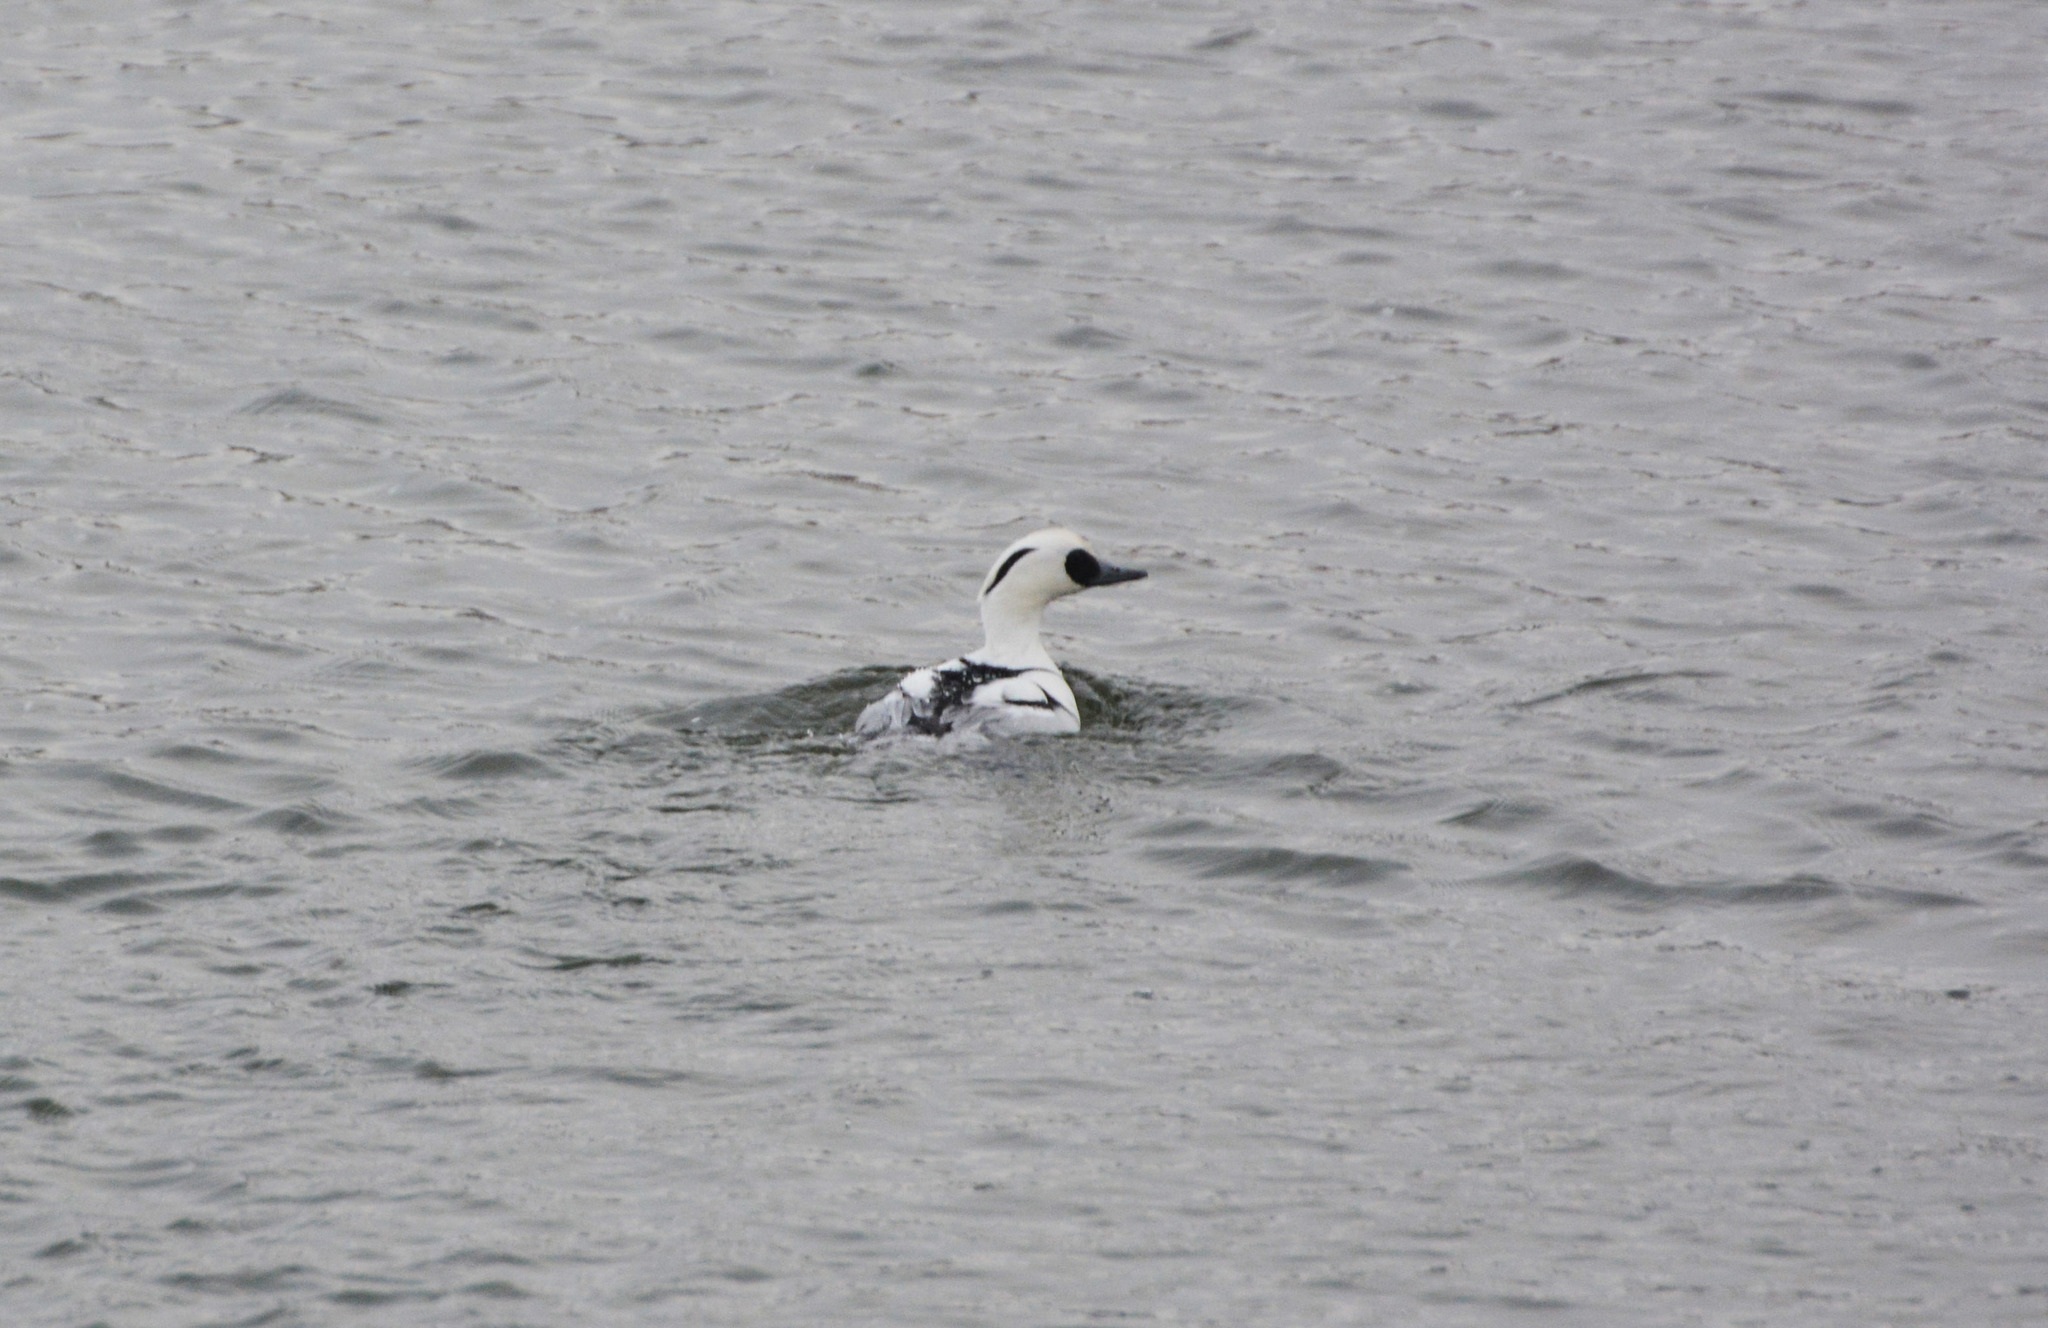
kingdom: Animalia
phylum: Chordata
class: Aves
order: Anseriformes
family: Anatidae
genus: Mergellus
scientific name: Mergellus albellus
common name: Smew
